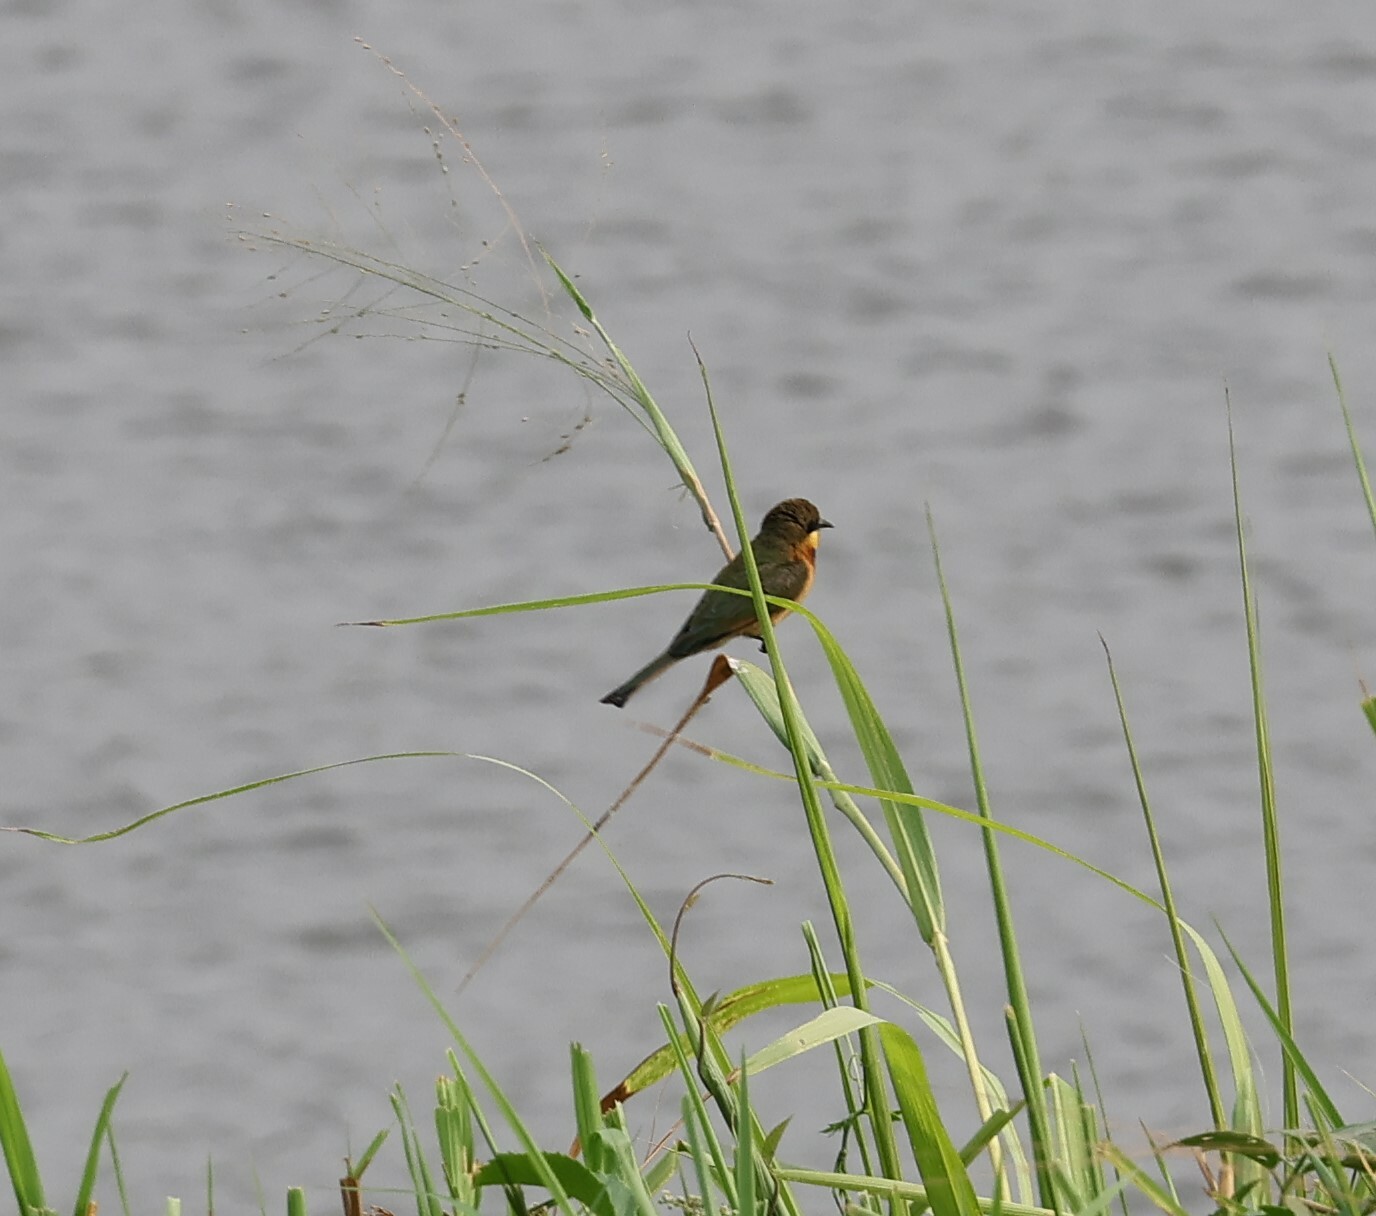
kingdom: Animalia
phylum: Chordata
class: Aves
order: Coraciiformes
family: Meropidae
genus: Merops
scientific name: Merops pusillus
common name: Little bee-eater
